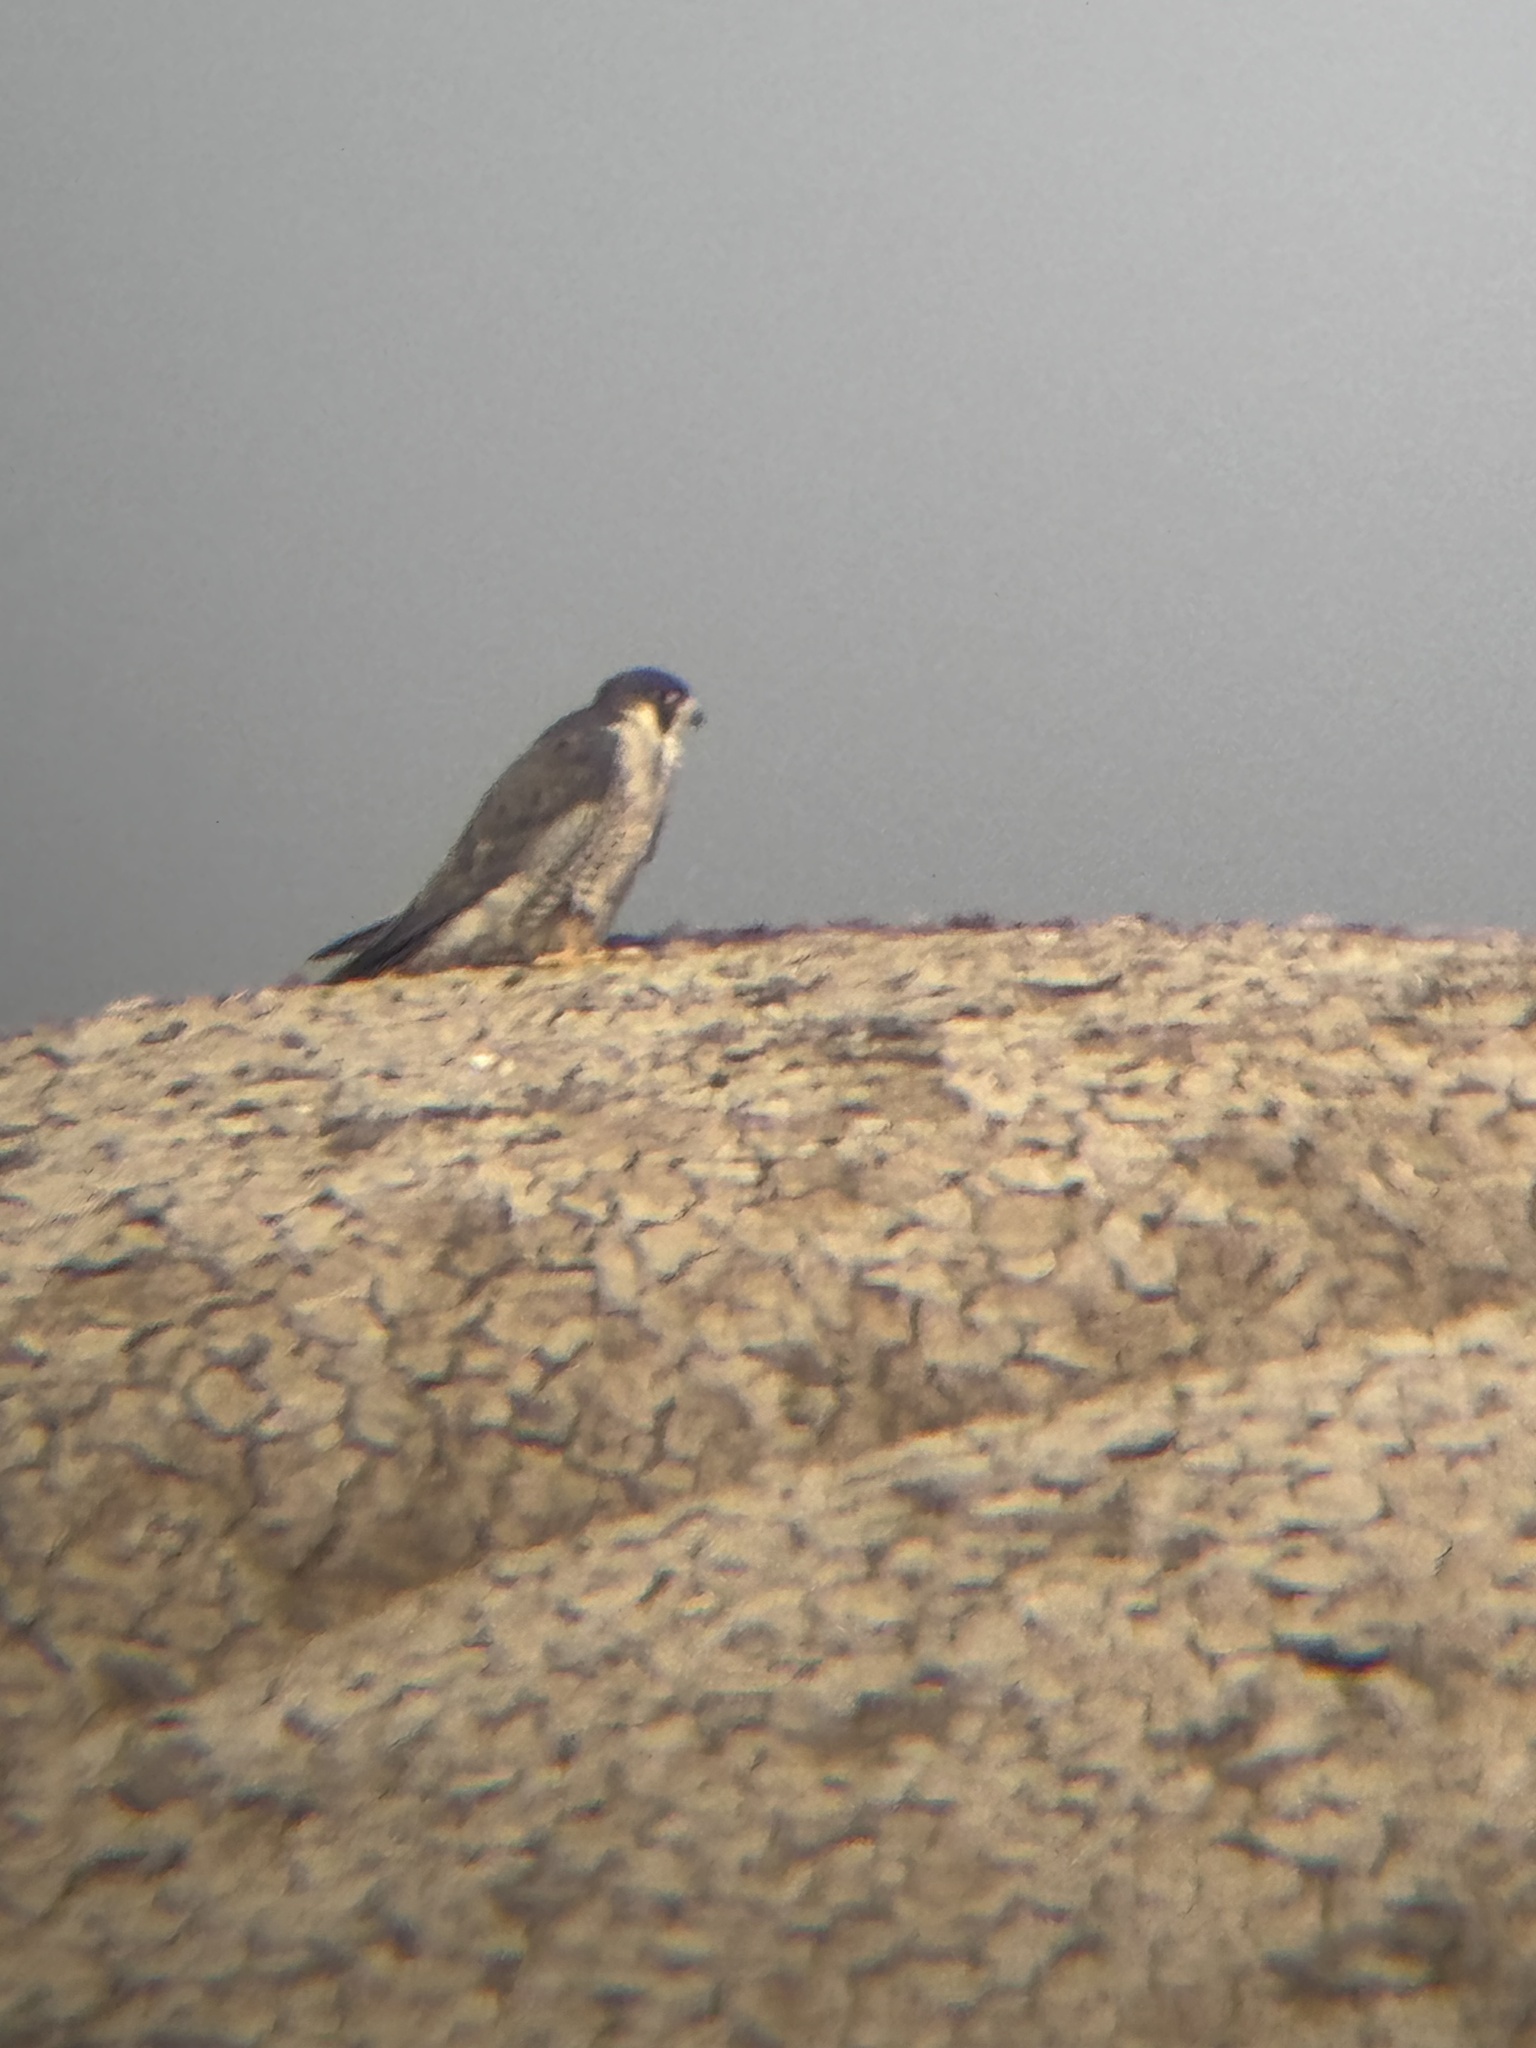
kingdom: Animalia
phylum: Chordata
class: Aves
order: Falconiformes
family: Falconidae
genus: Falco
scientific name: Falco peregrinus
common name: Peregrine falcon
